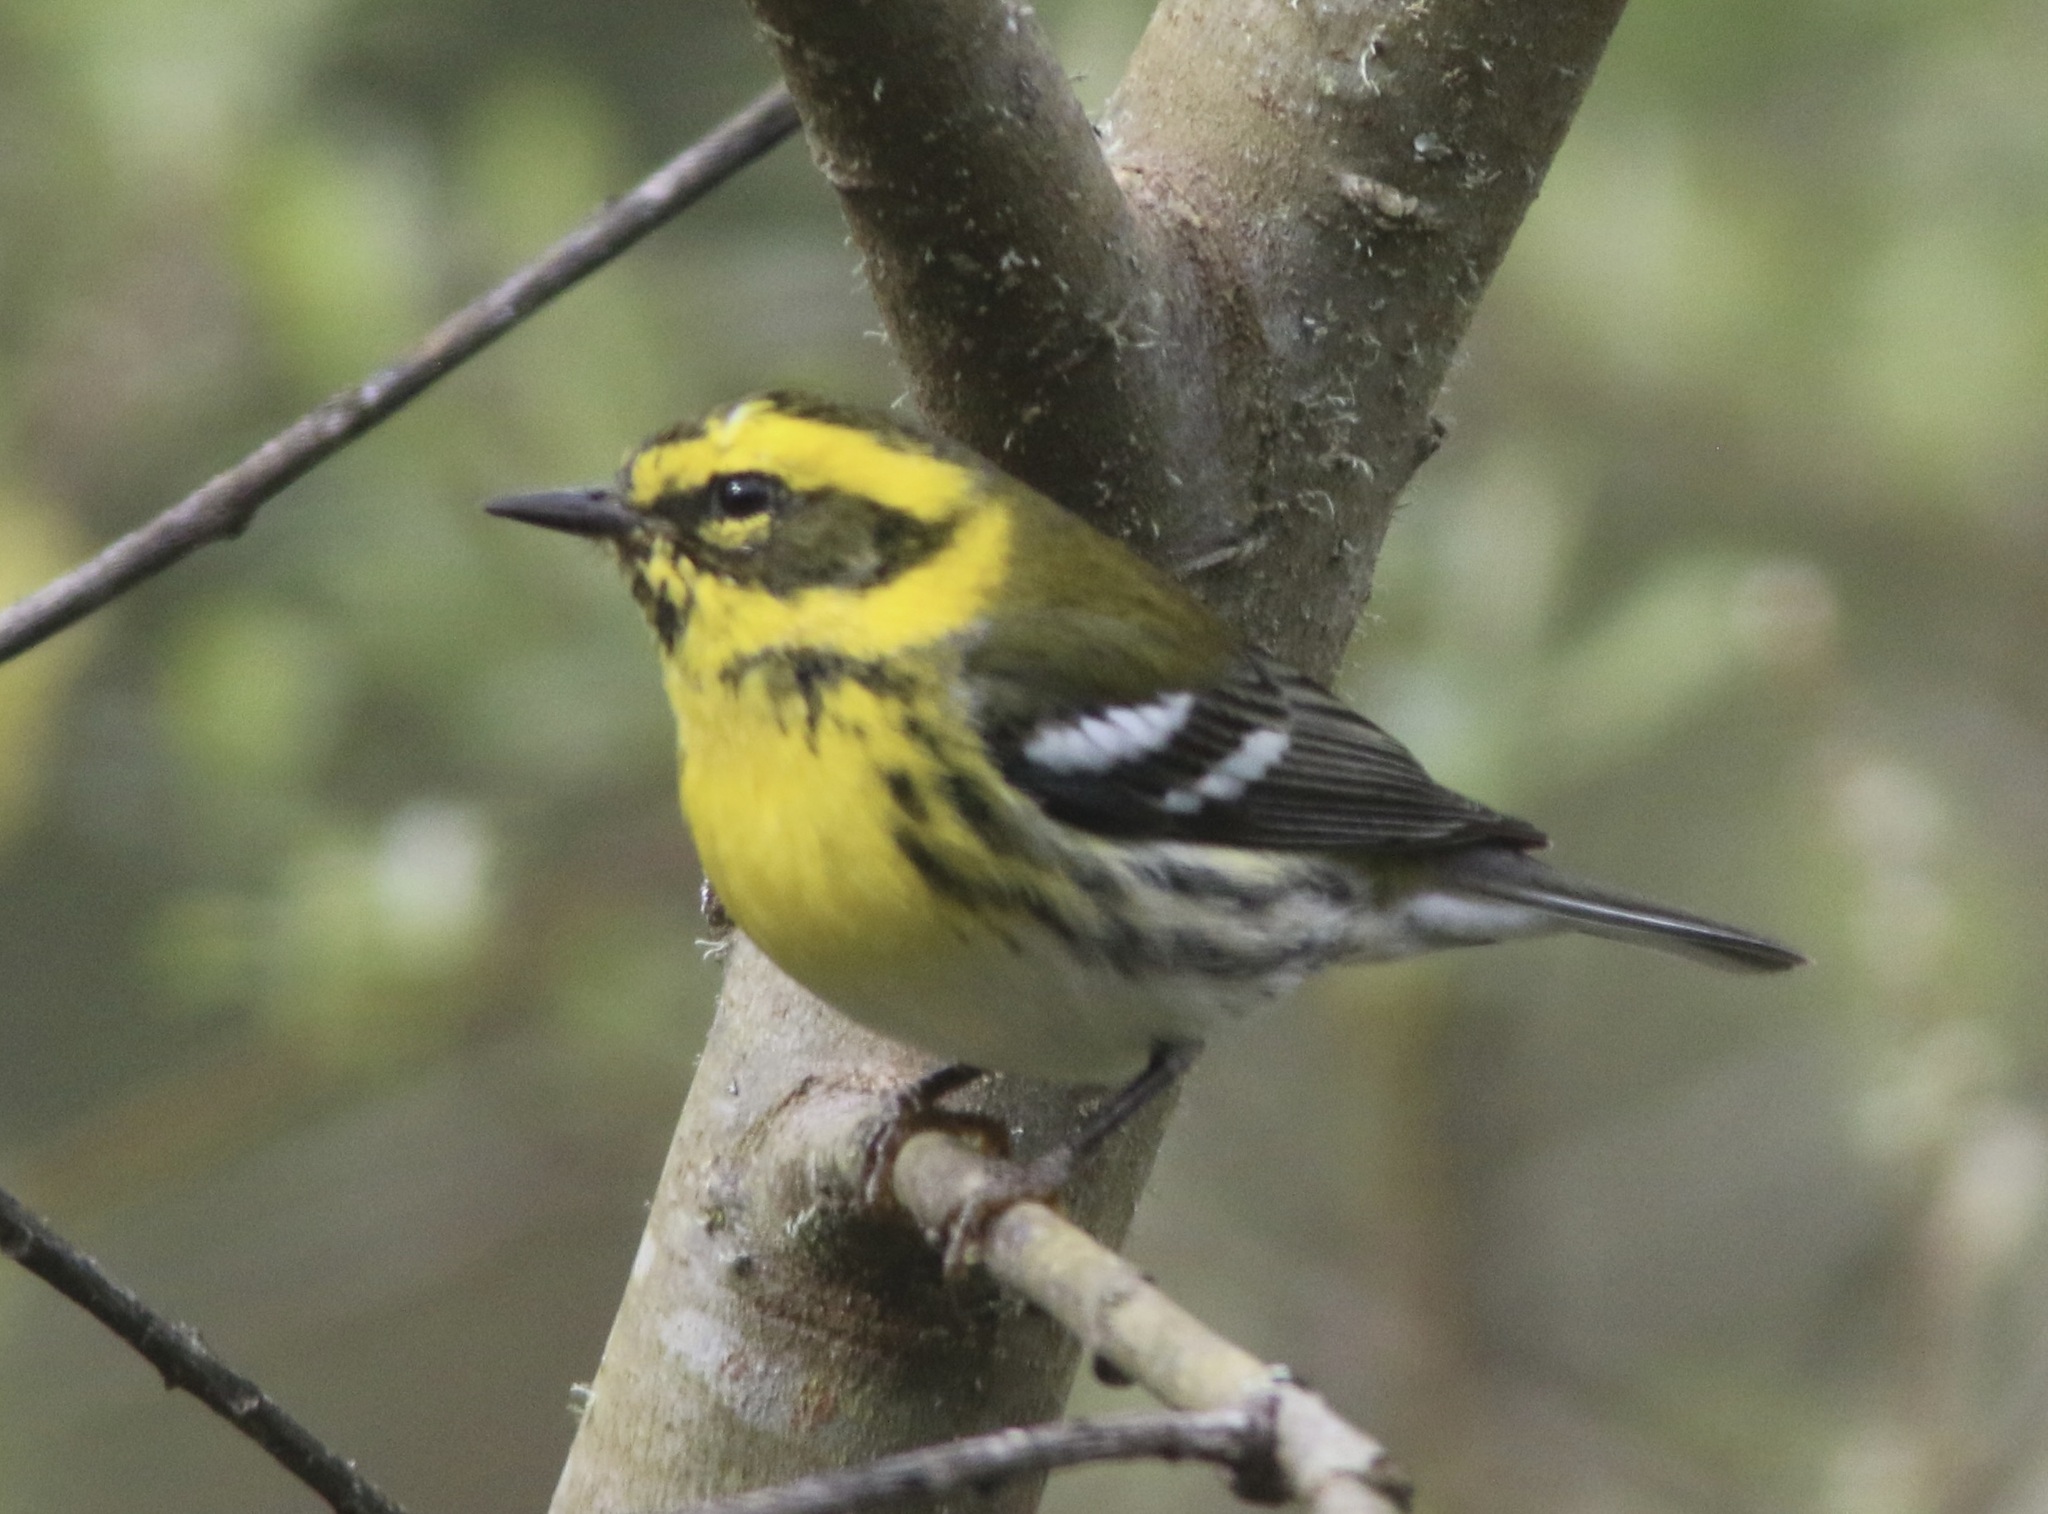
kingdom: Animalia
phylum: Chordata
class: Aves
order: Passeriformes
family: Parulidae
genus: Setophaga
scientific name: Setophaga townsendi
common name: Townsend's warbler
